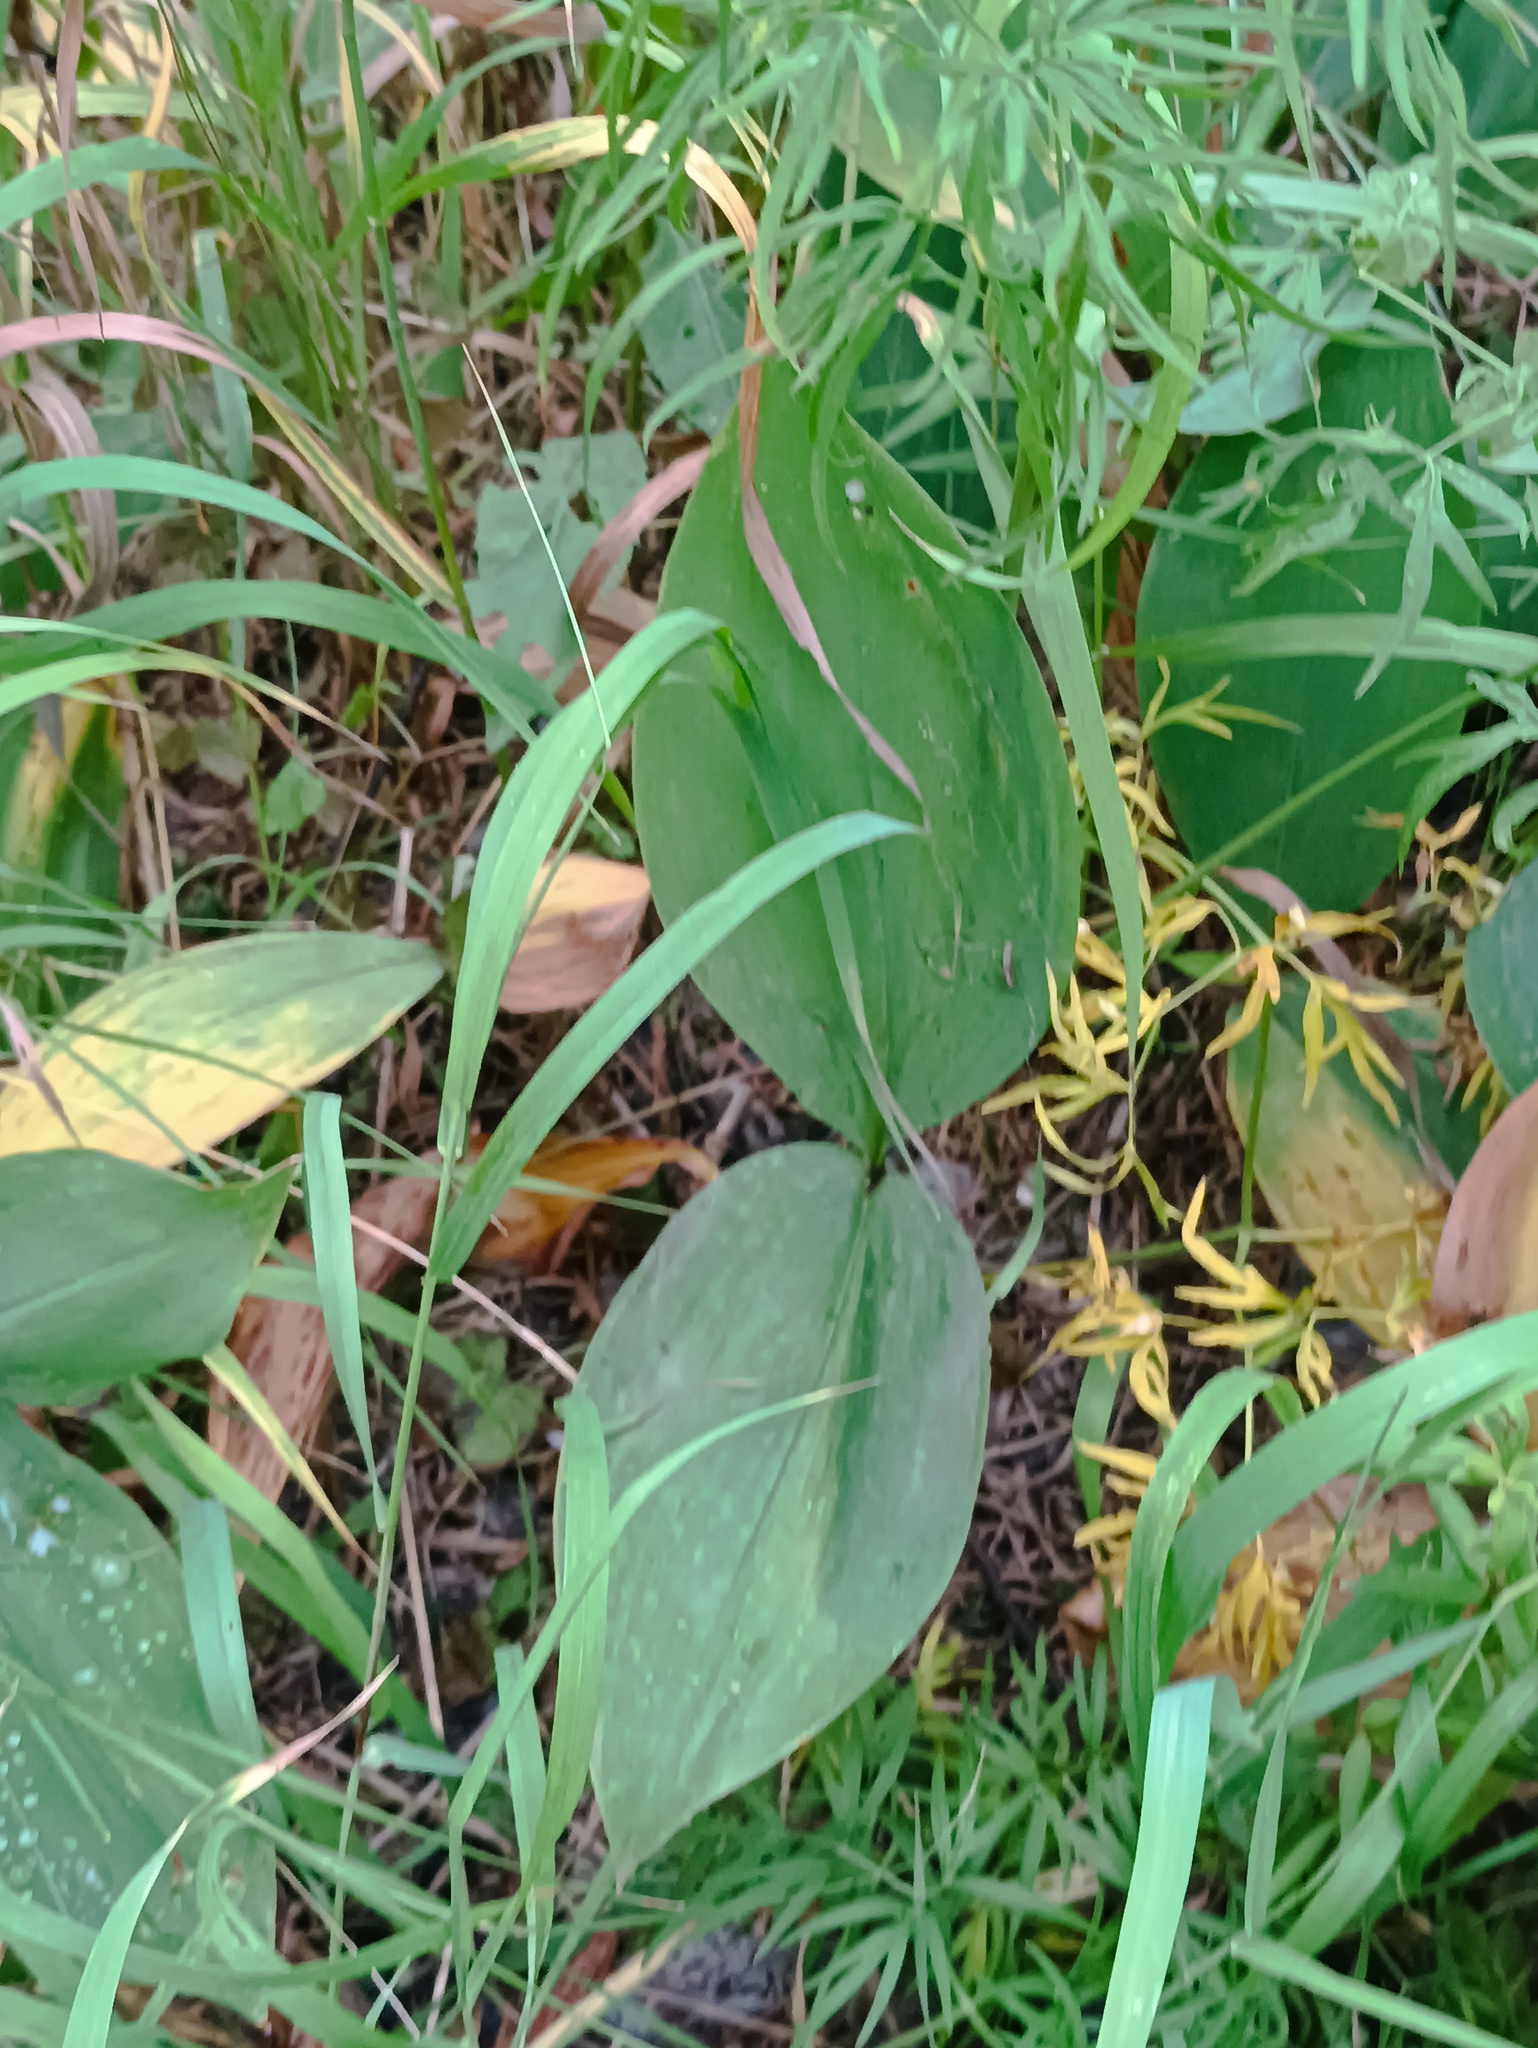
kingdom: Plantae
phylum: Tracheophyta
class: Liliopsida
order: Asparagales
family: Asparagaceae
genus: Convallaria
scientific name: Convallaria majalis
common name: Lily-of-the-valley
